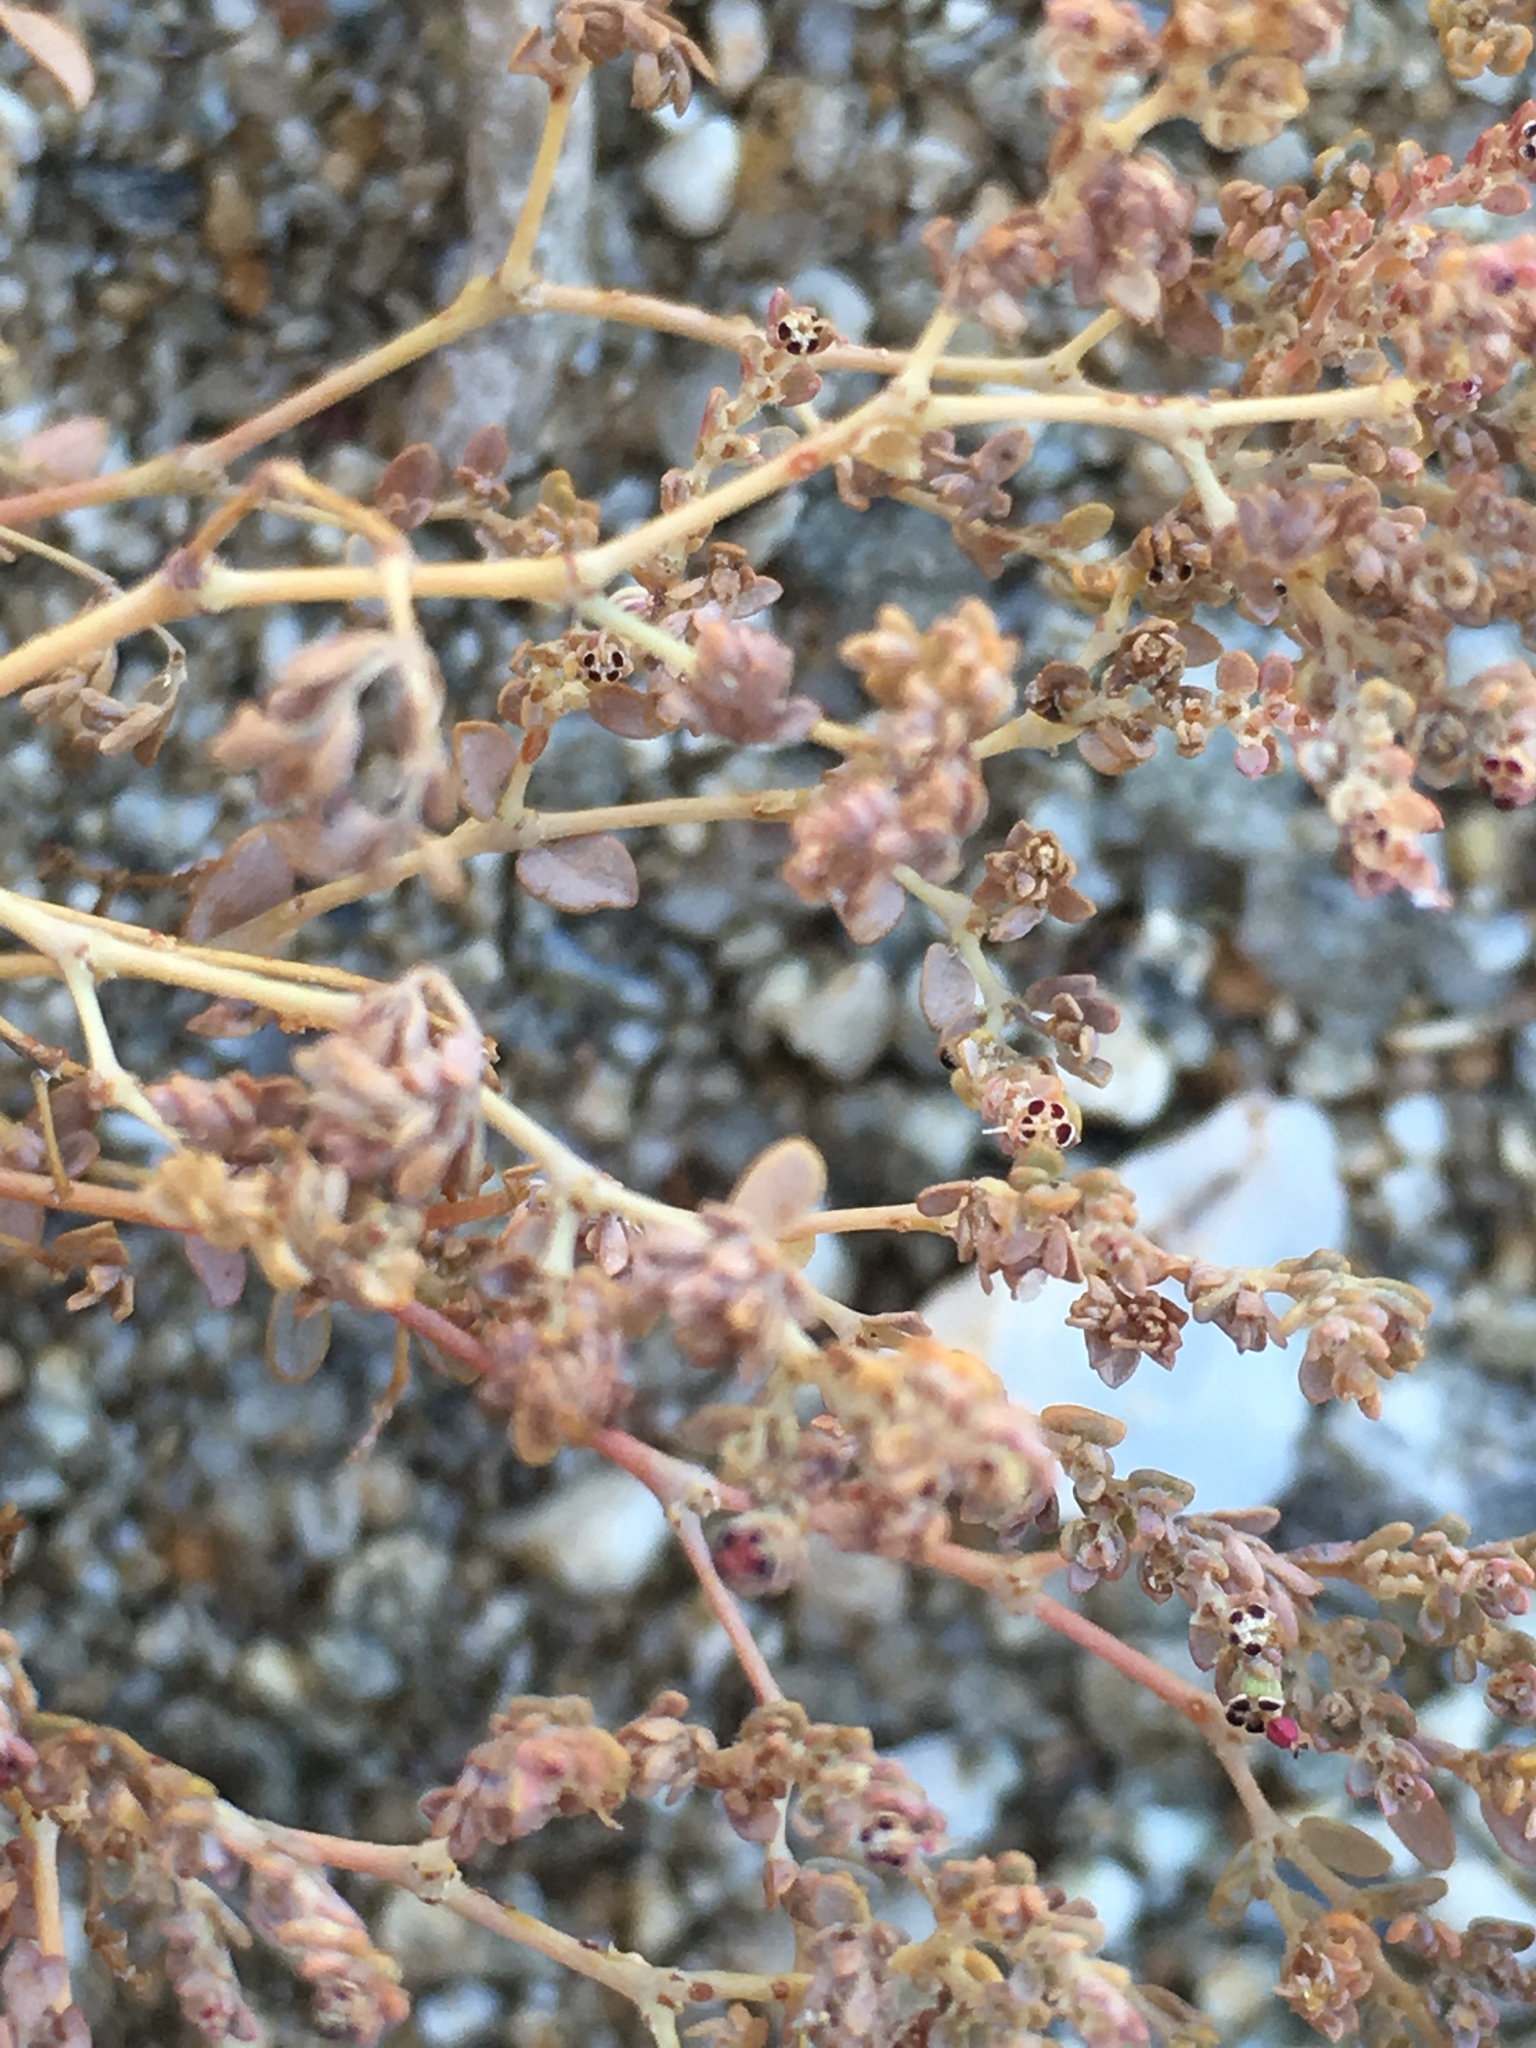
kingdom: Plantae
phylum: Tracheophyta
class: Magnoliopsida
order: Malpighiales
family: Euphorbiaceae
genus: Euphorbia
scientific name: Euphorbia polycarpa
